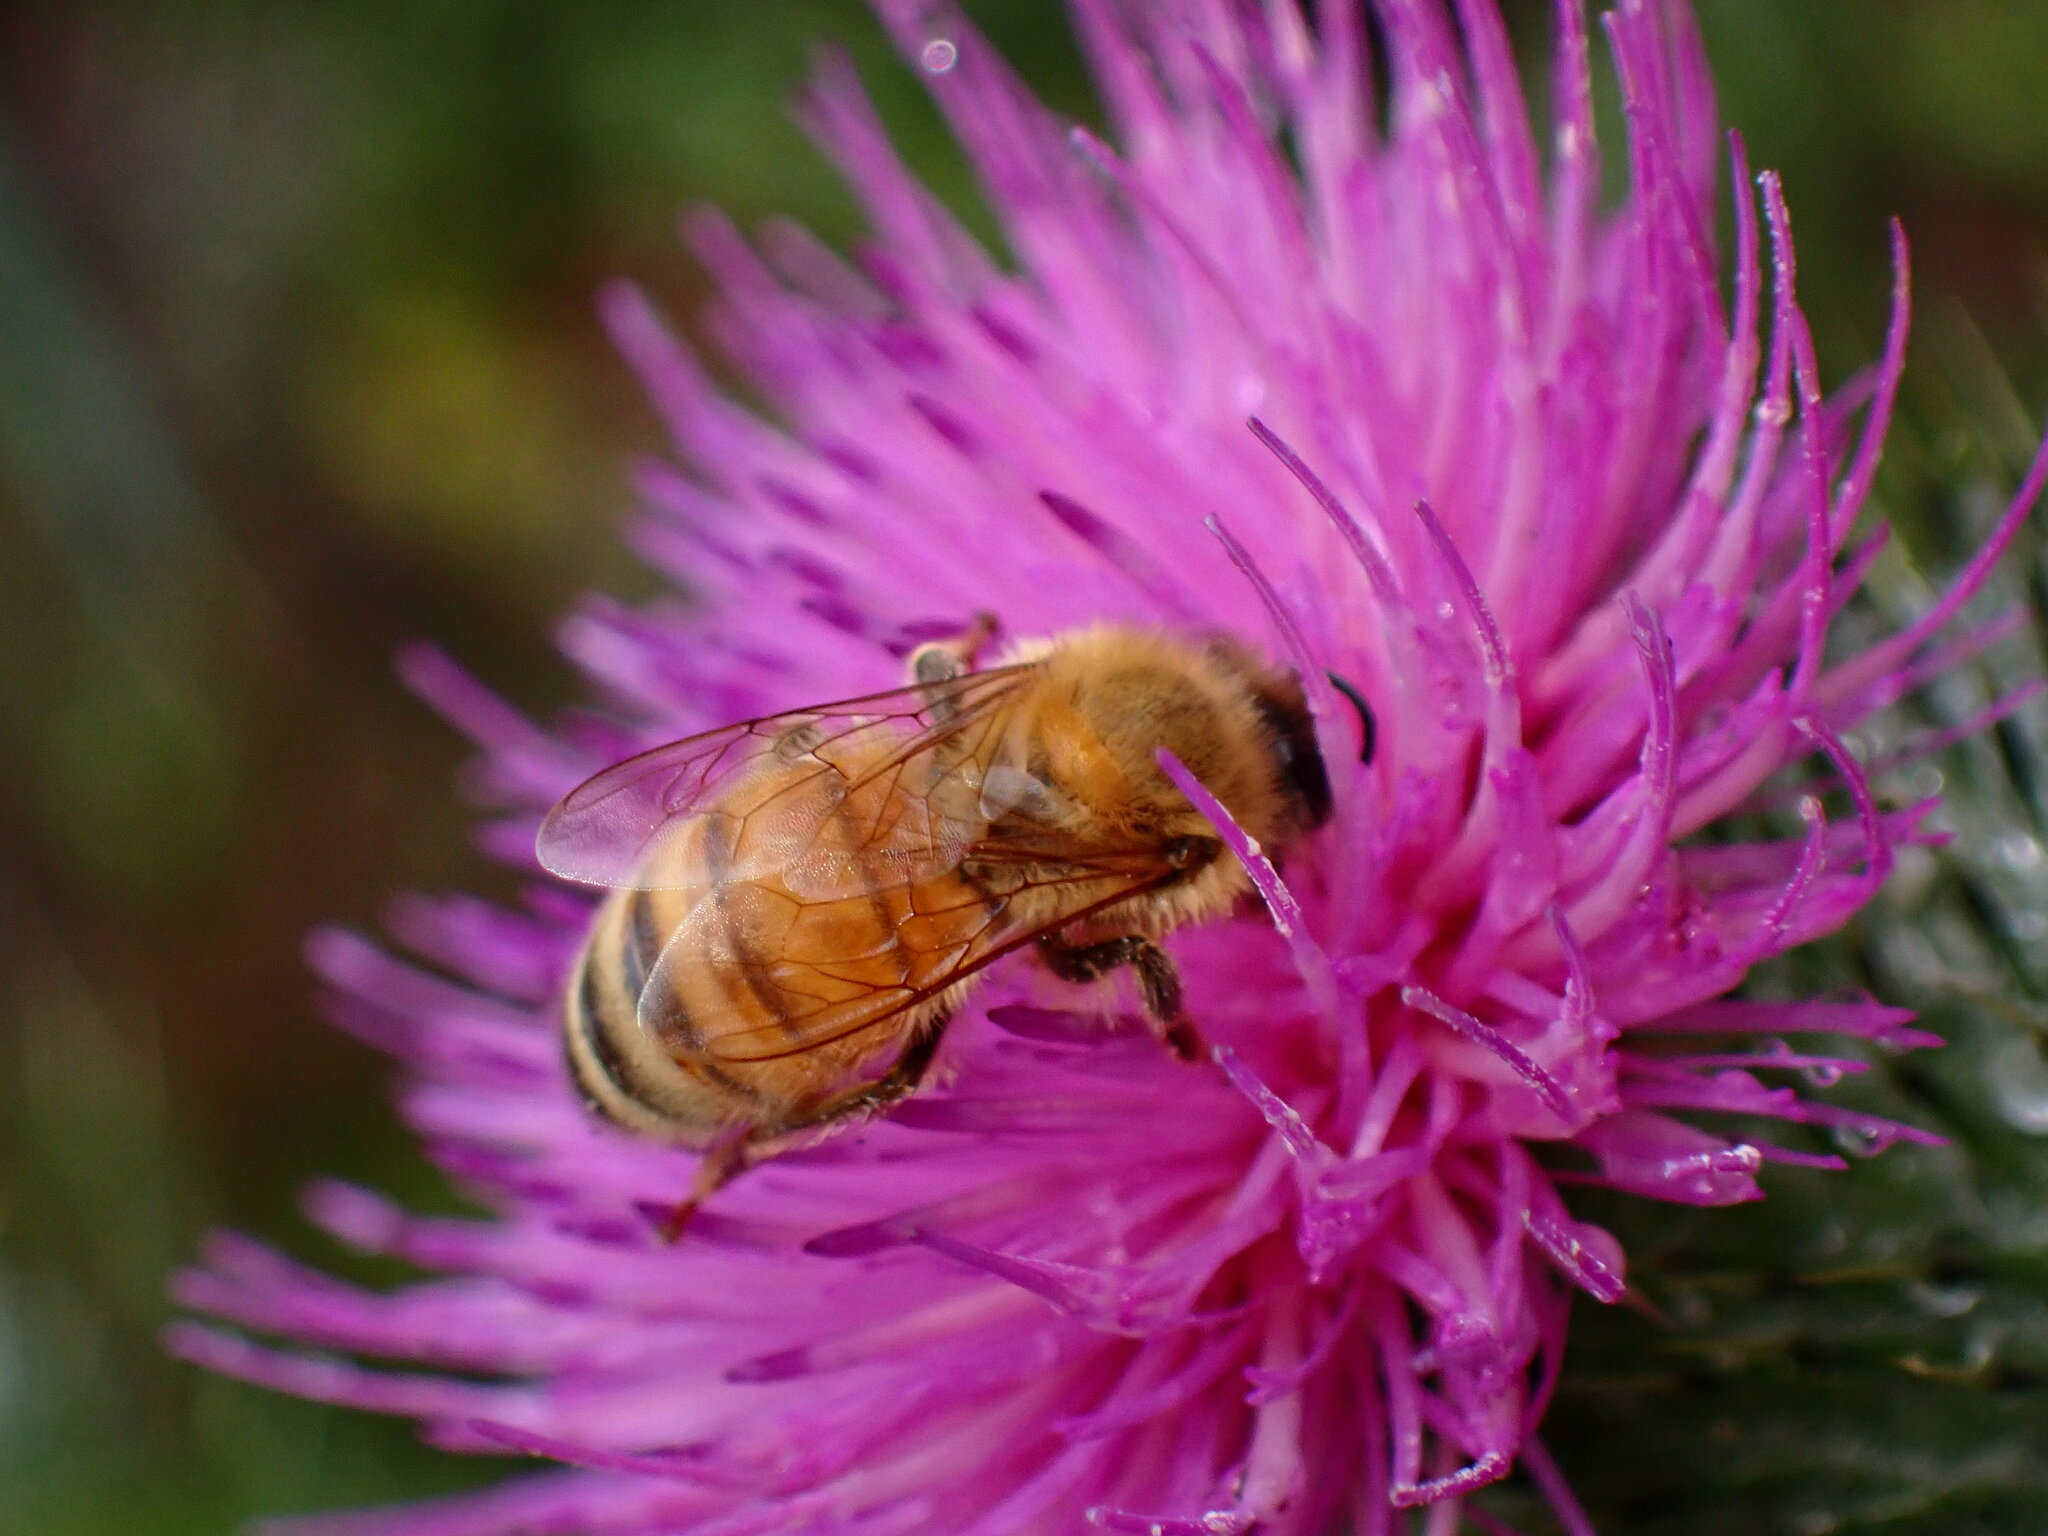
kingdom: Animalia
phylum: Arthropoda
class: Insecta
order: Hymenoptera
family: Apidae
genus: Apis
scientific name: Apis mellifera
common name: Honey bee
